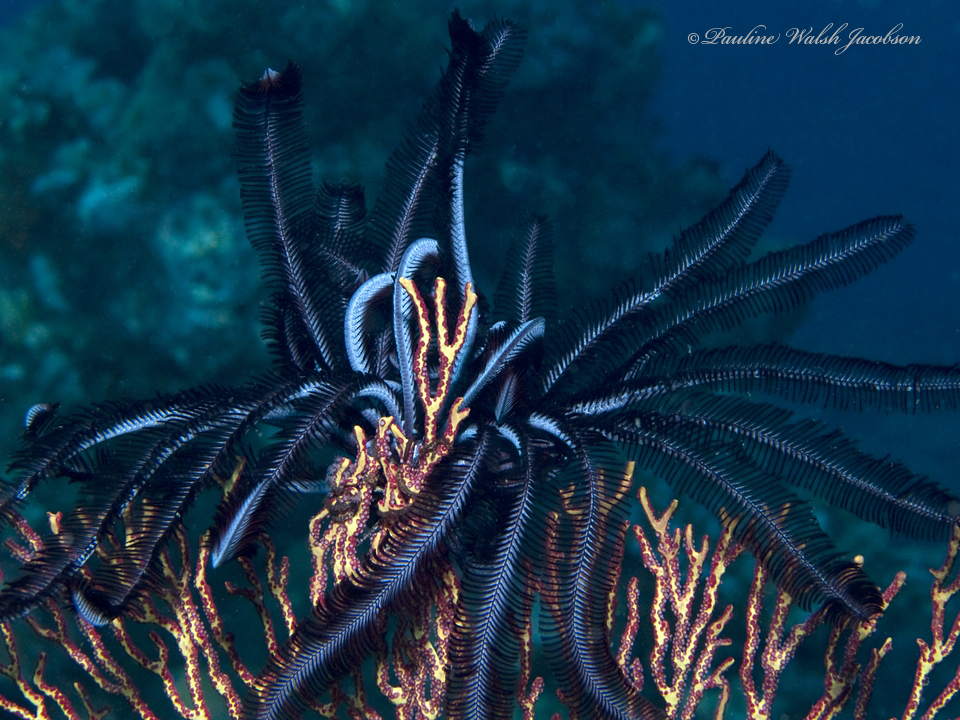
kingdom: Animalia
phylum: Echinodermata
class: Crinoidea
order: Comatulida
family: Colobometridae
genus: Cenometra
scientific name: Cenometra bella
